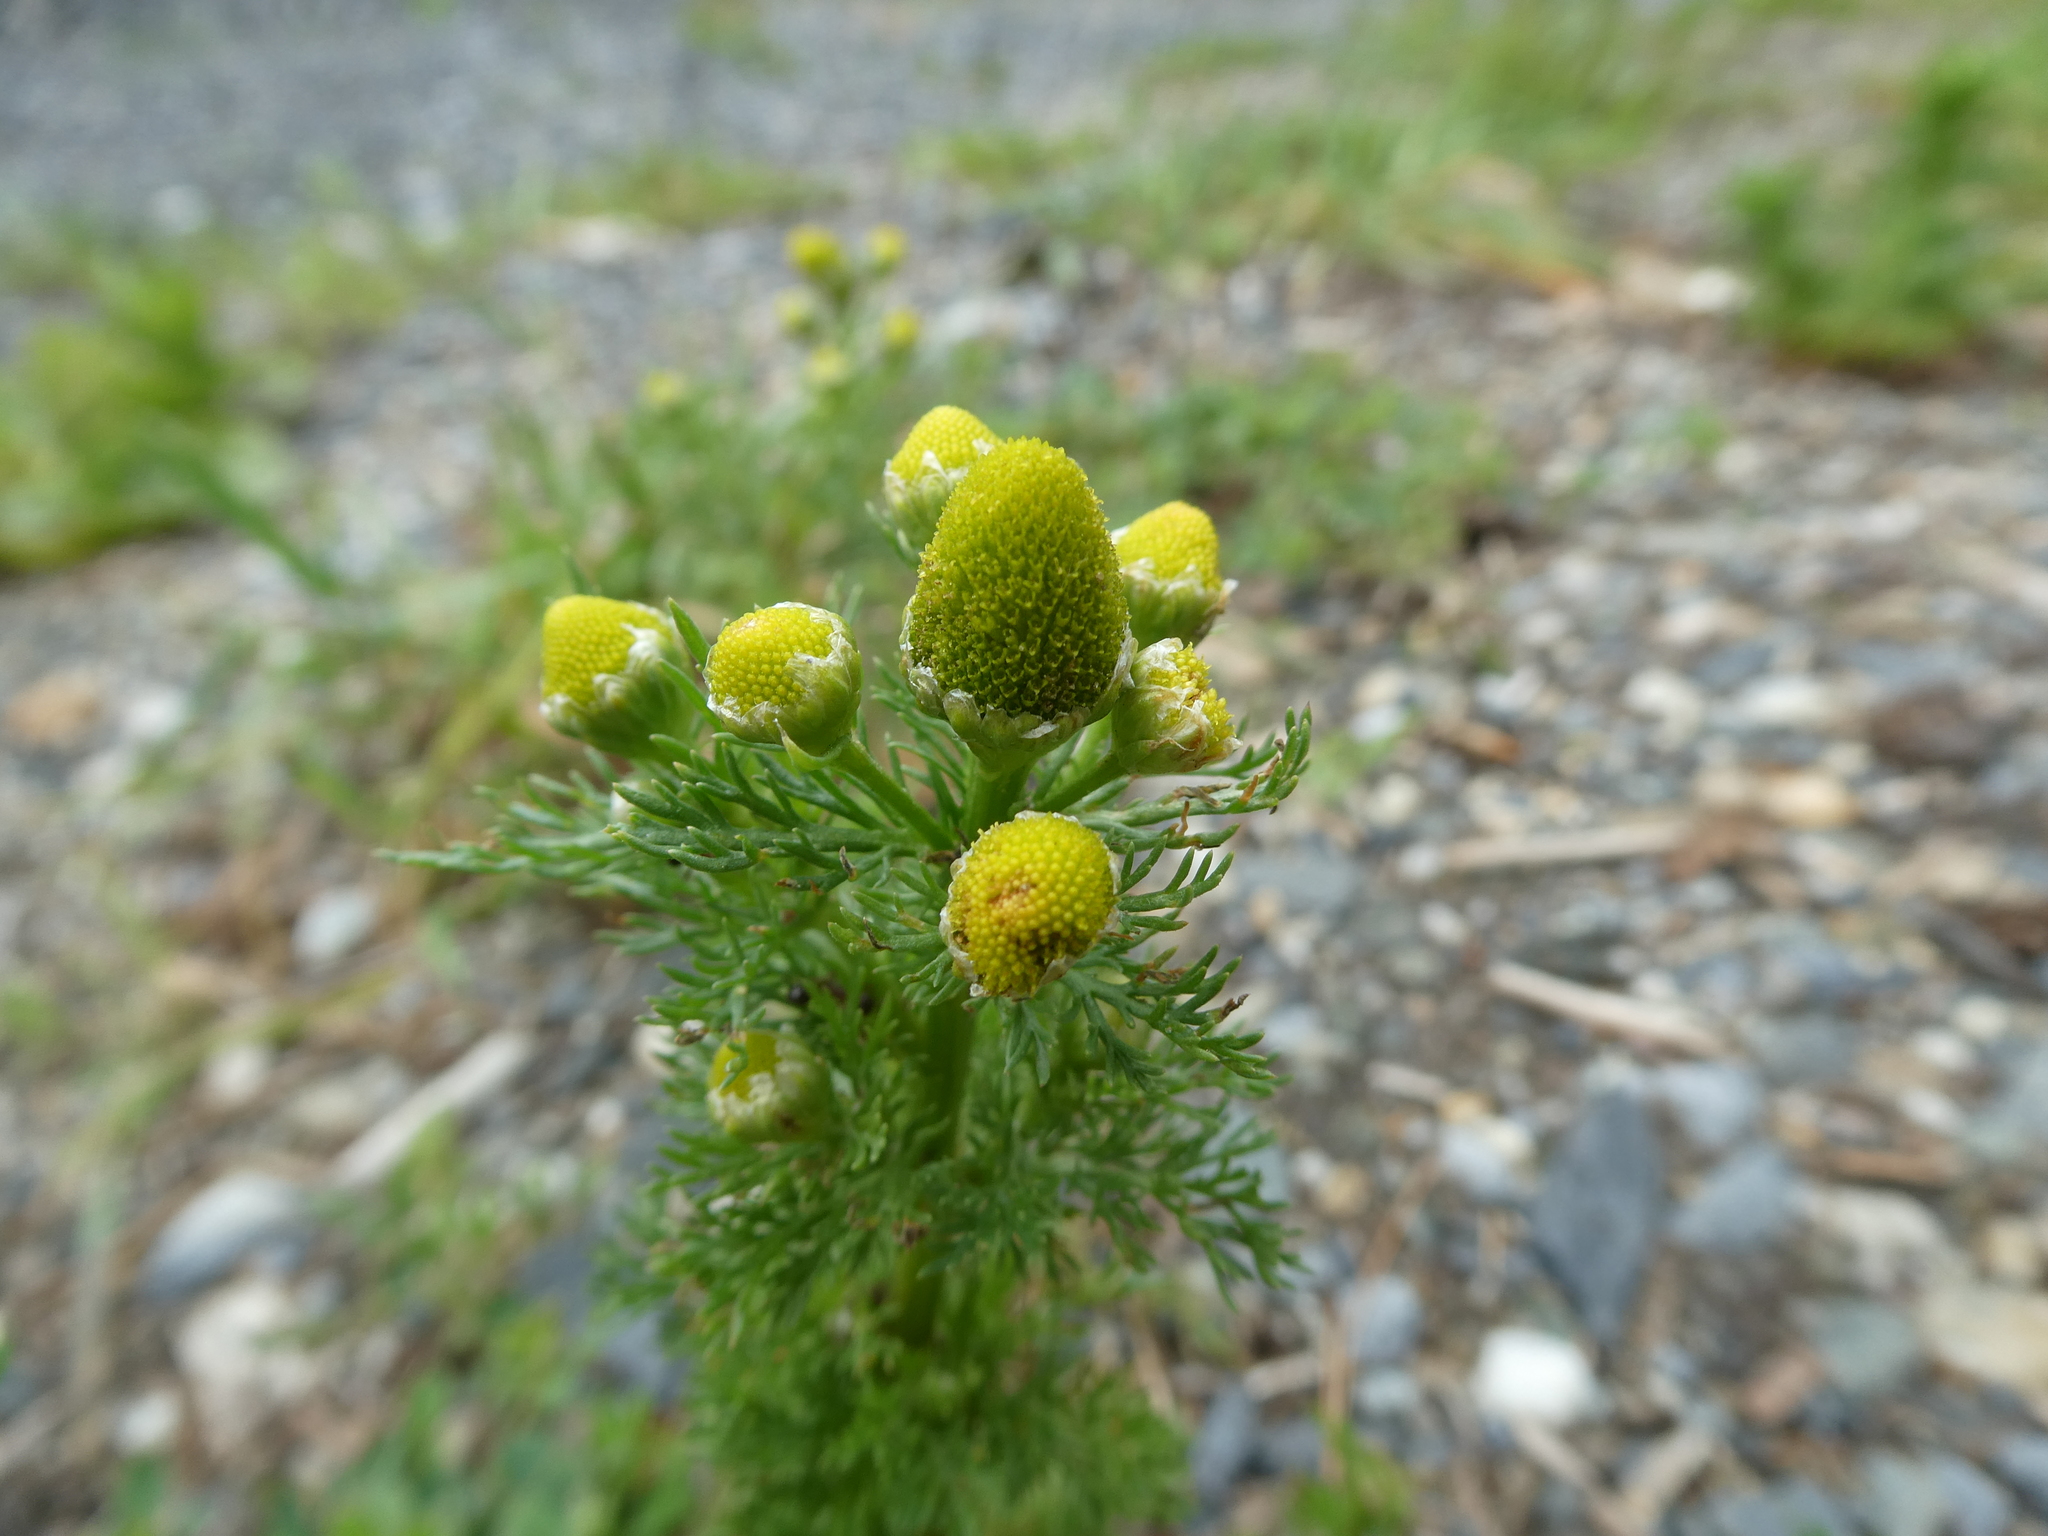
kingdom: Plantae
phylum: Tracheophyta
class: Magnoliopsida
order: Asterales
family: Asteraceae
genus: Matricaria
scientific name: Matricaria discoidea
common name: Disc mayweed
